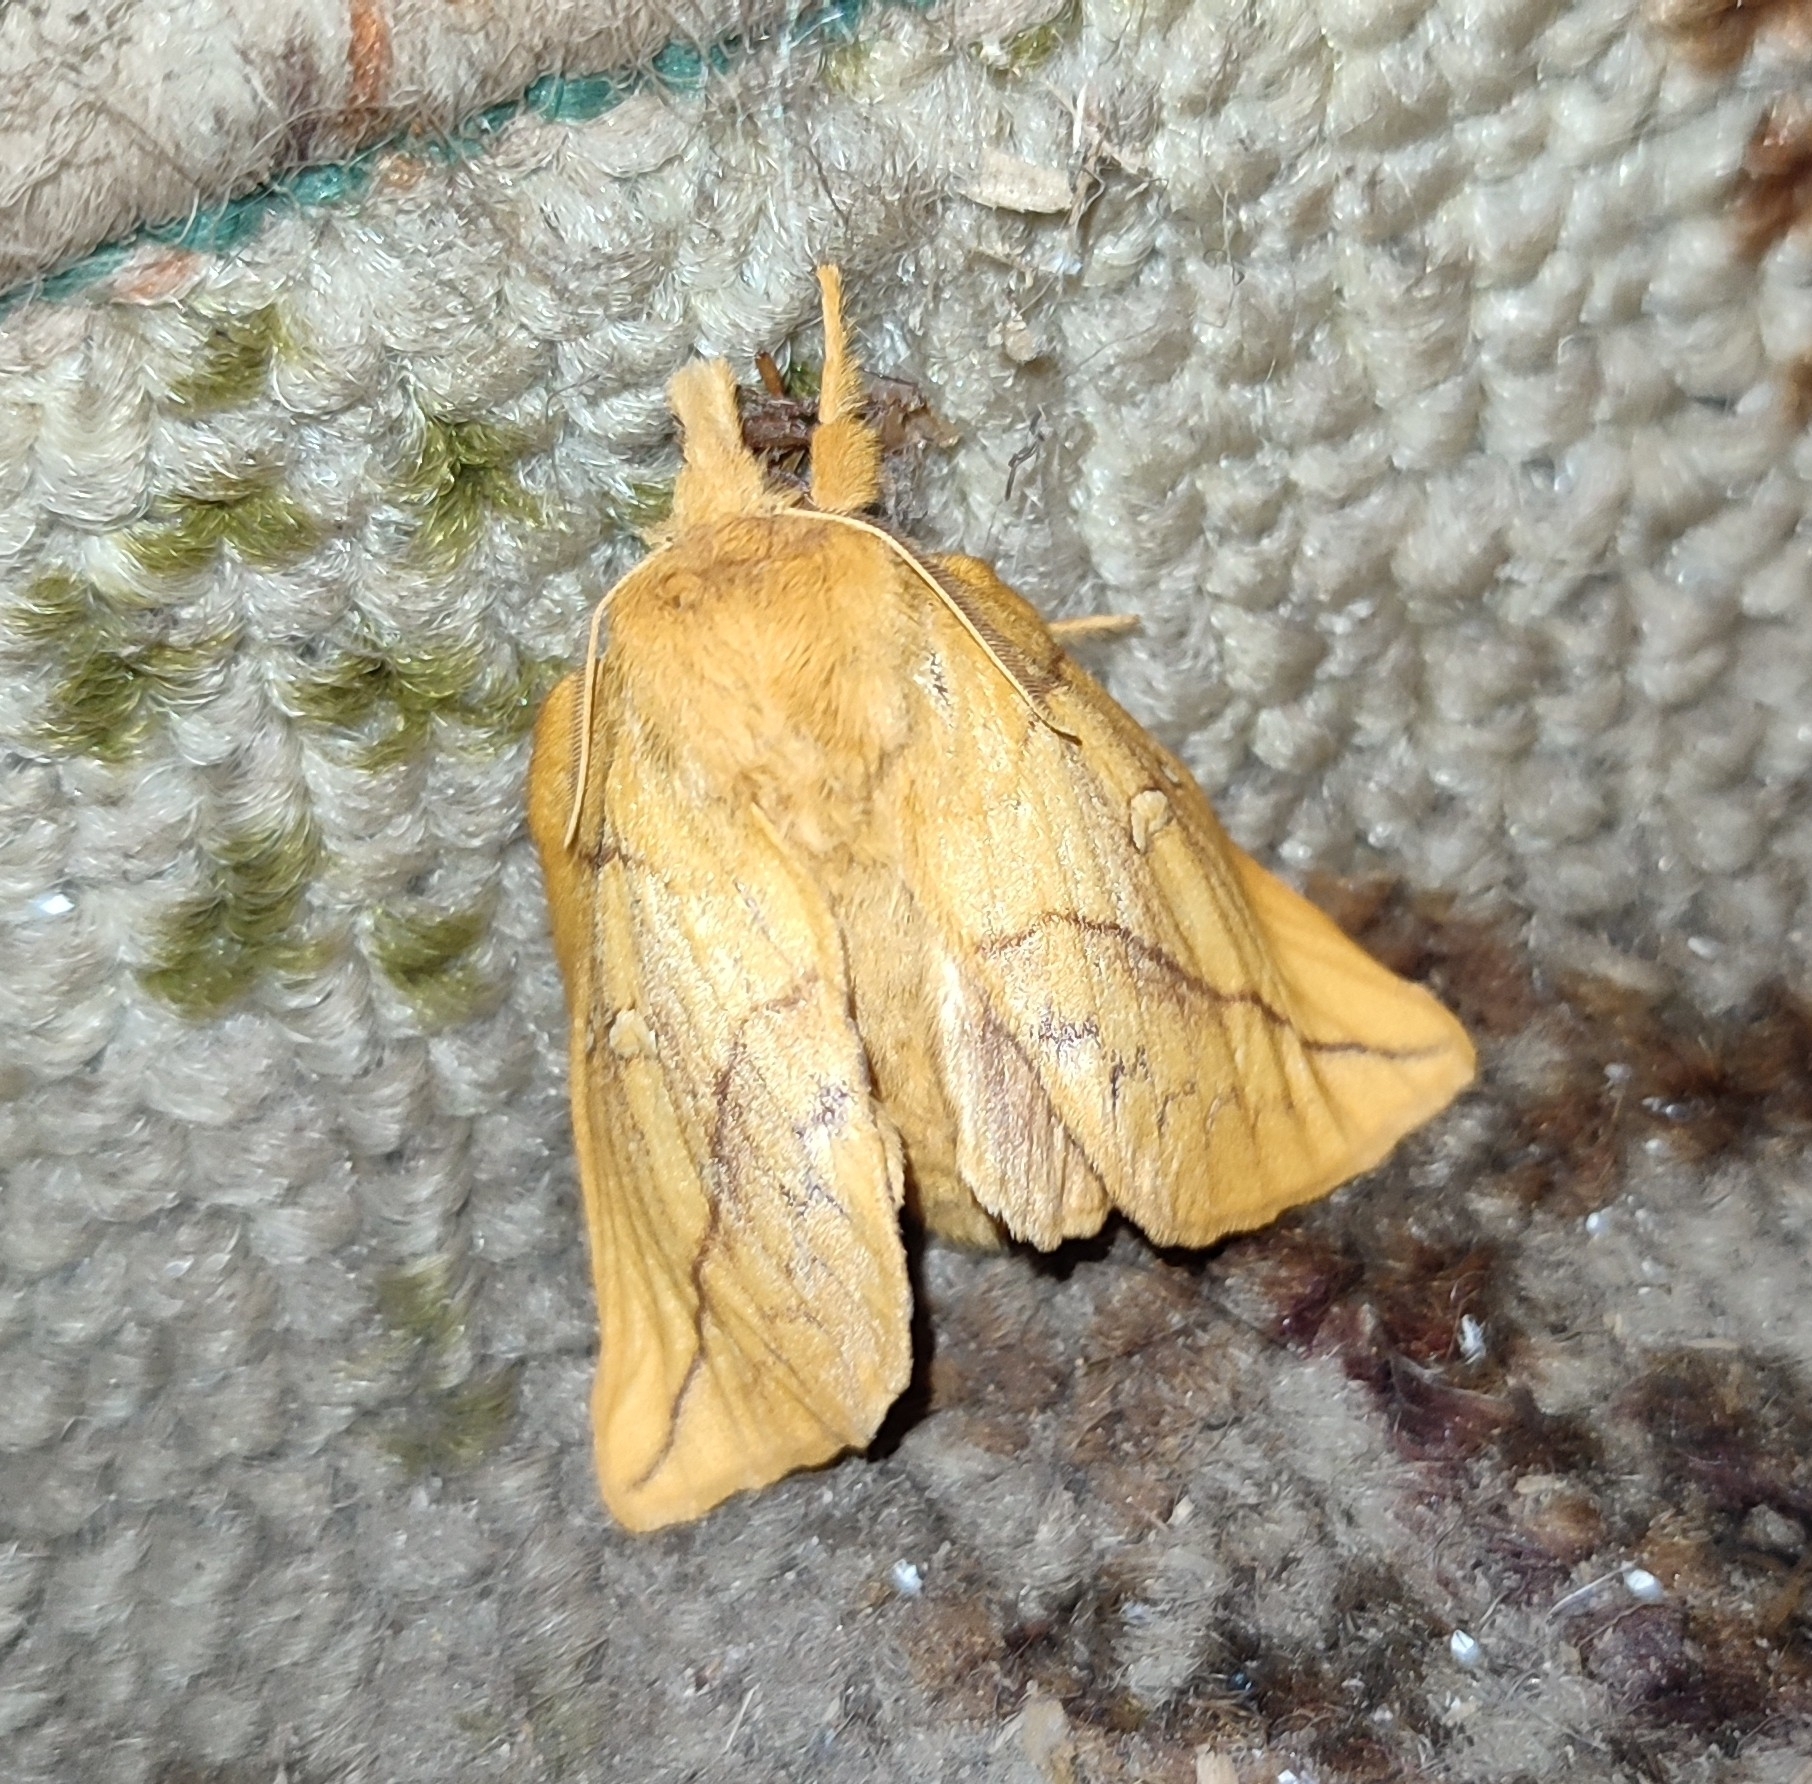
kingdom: Animalia
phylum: Arthropoda
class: Insecta
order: Lepidoptera
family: Lasiocampidae
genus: Euthrix
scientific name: Euthrix potatoria
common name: Drinker
